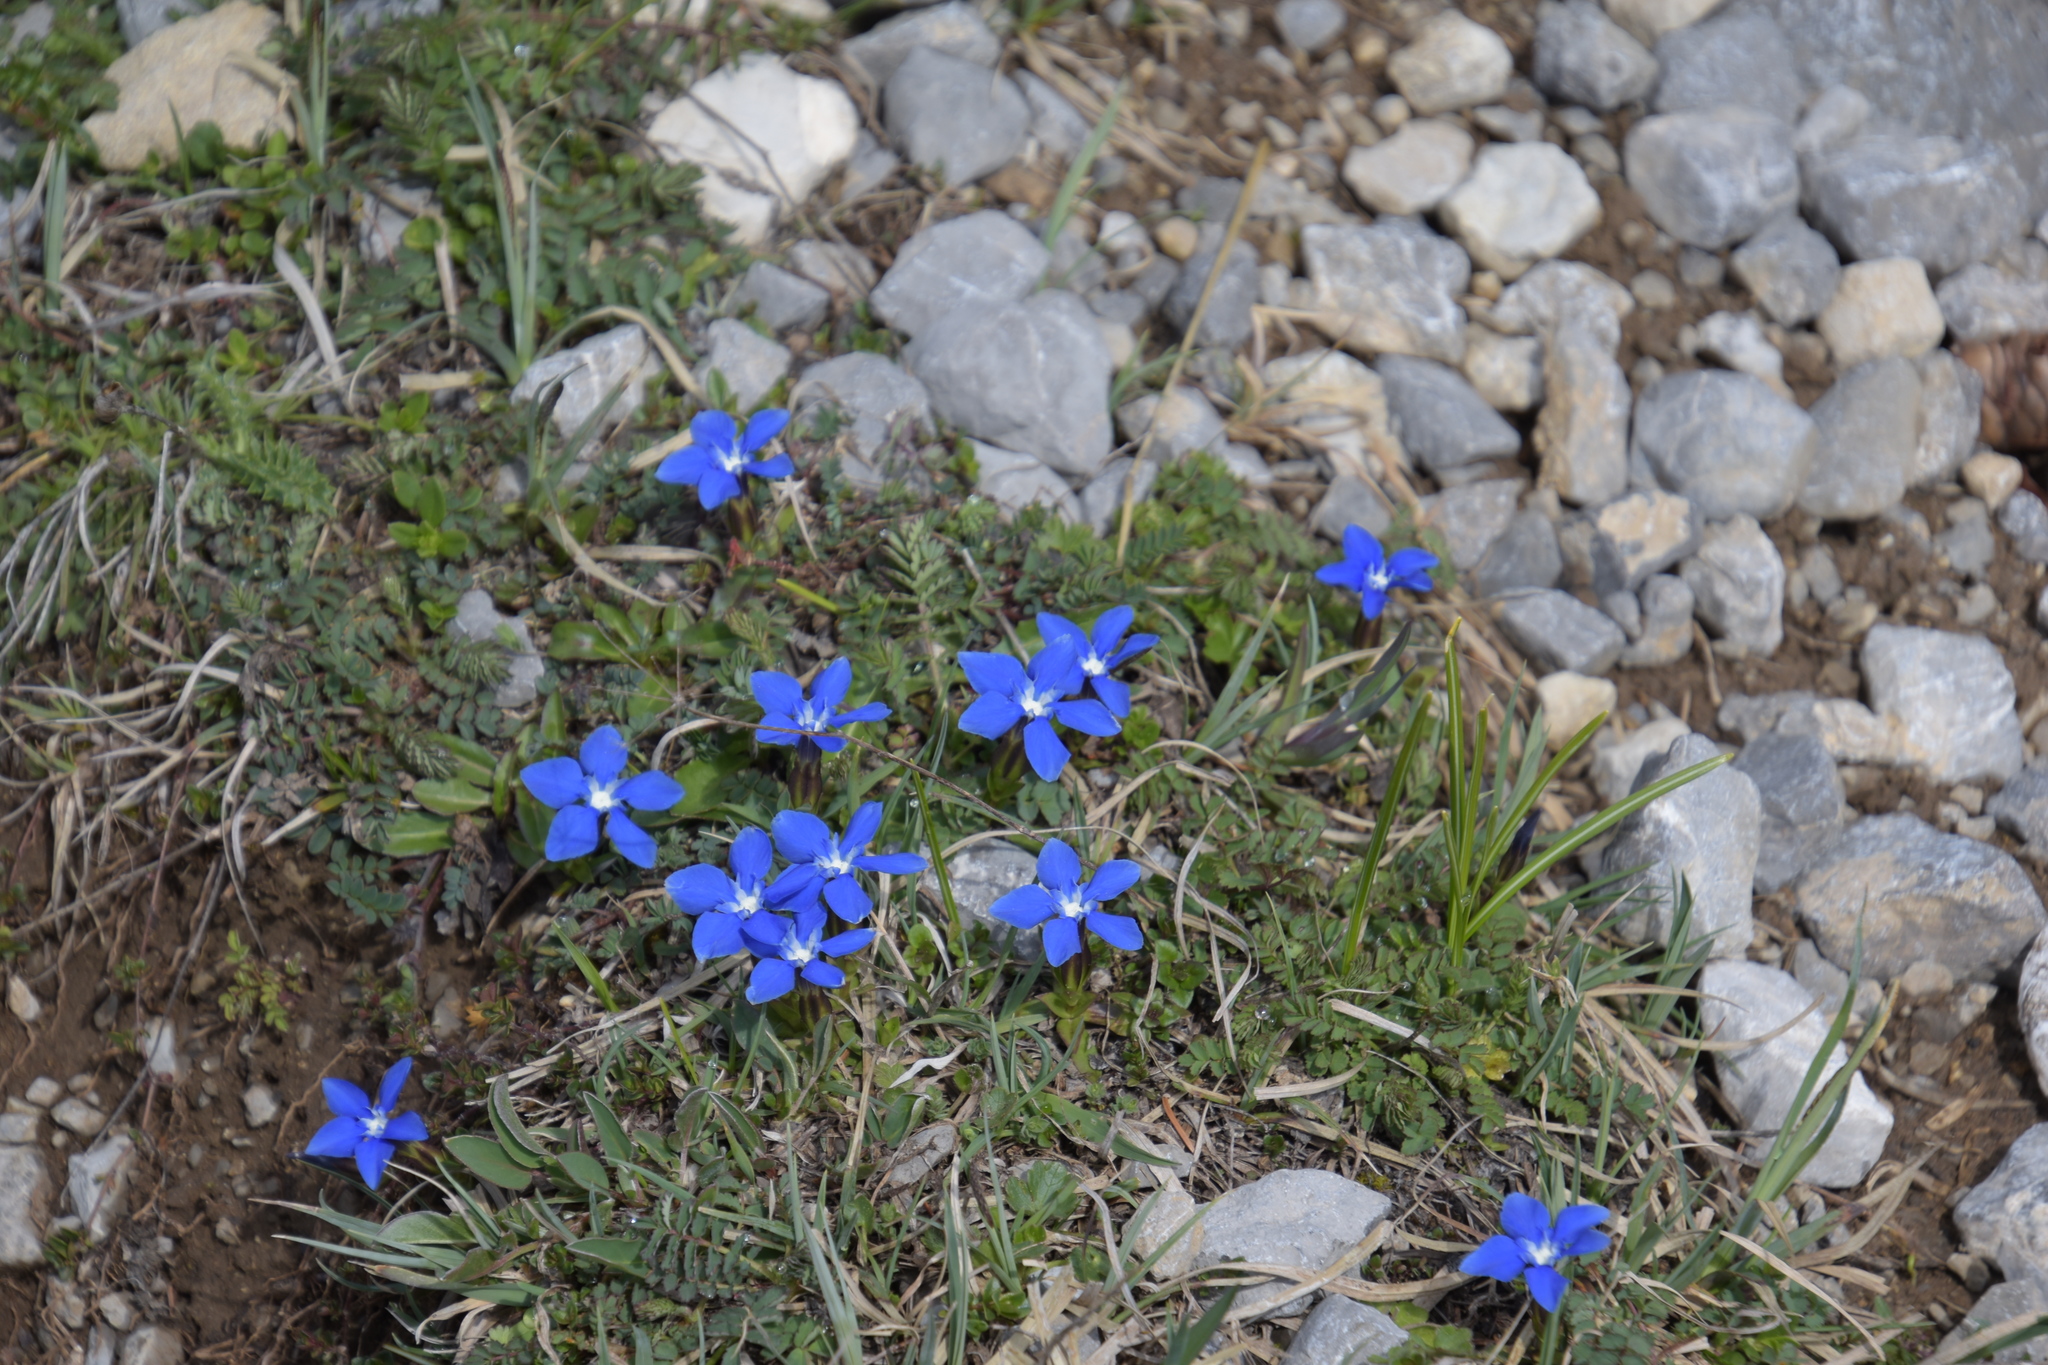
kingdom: Plantae
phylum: Tracheophyta
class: Magnoliopsida
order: Gentianales
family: Gentianaceae
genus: Gentiana
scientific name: Gentiana verna
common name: Spring gentian
